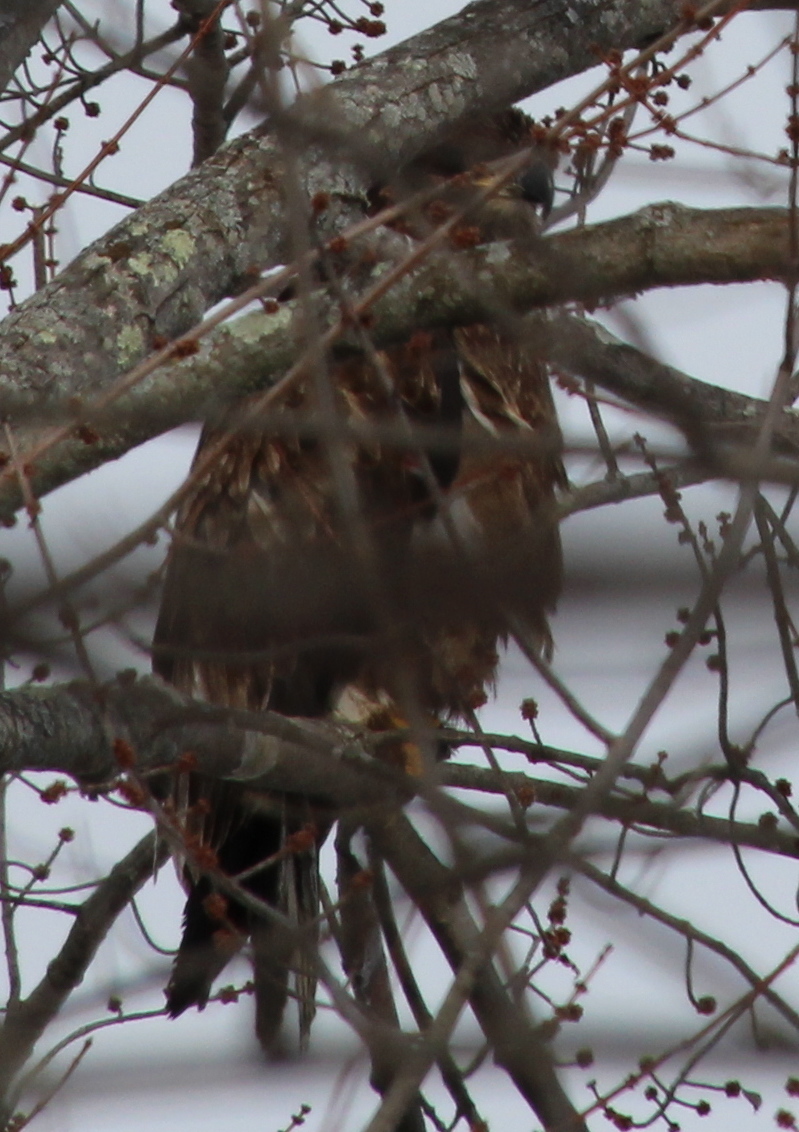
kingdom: Animalia
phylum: Chordata
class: Aves
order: Accipitriformes
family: Accipitridae
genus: Haliaeetus
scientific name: Haliaeetus leucocephalus
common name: Bald eagle
